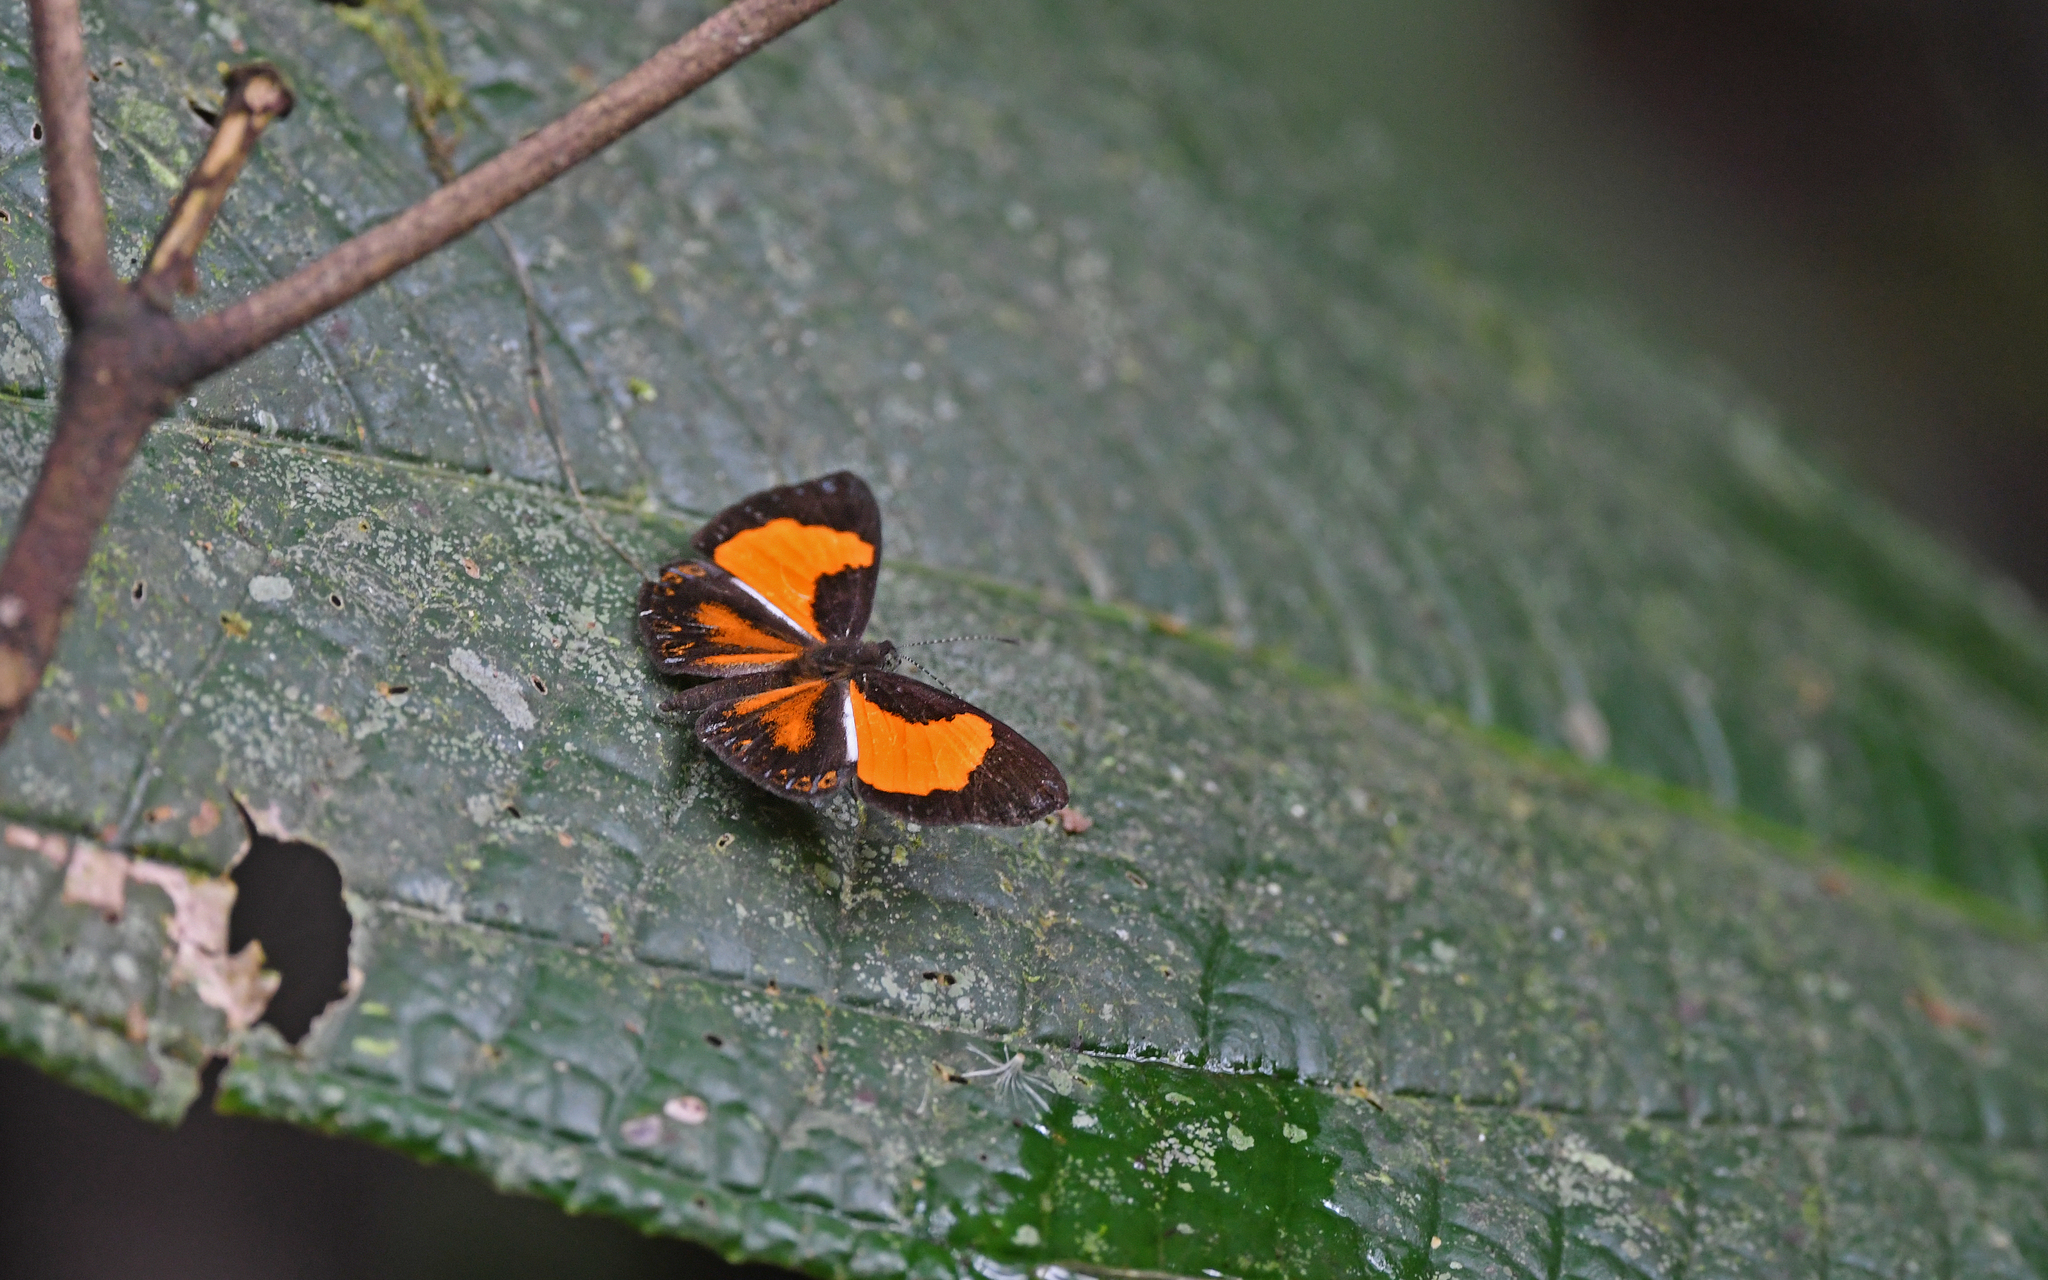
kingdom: Animalia
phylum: Arthropoda
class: Insecta
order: Lepidoptera
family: Riodinidae
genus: Cariomothis
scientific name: Cariomothis erotylus
